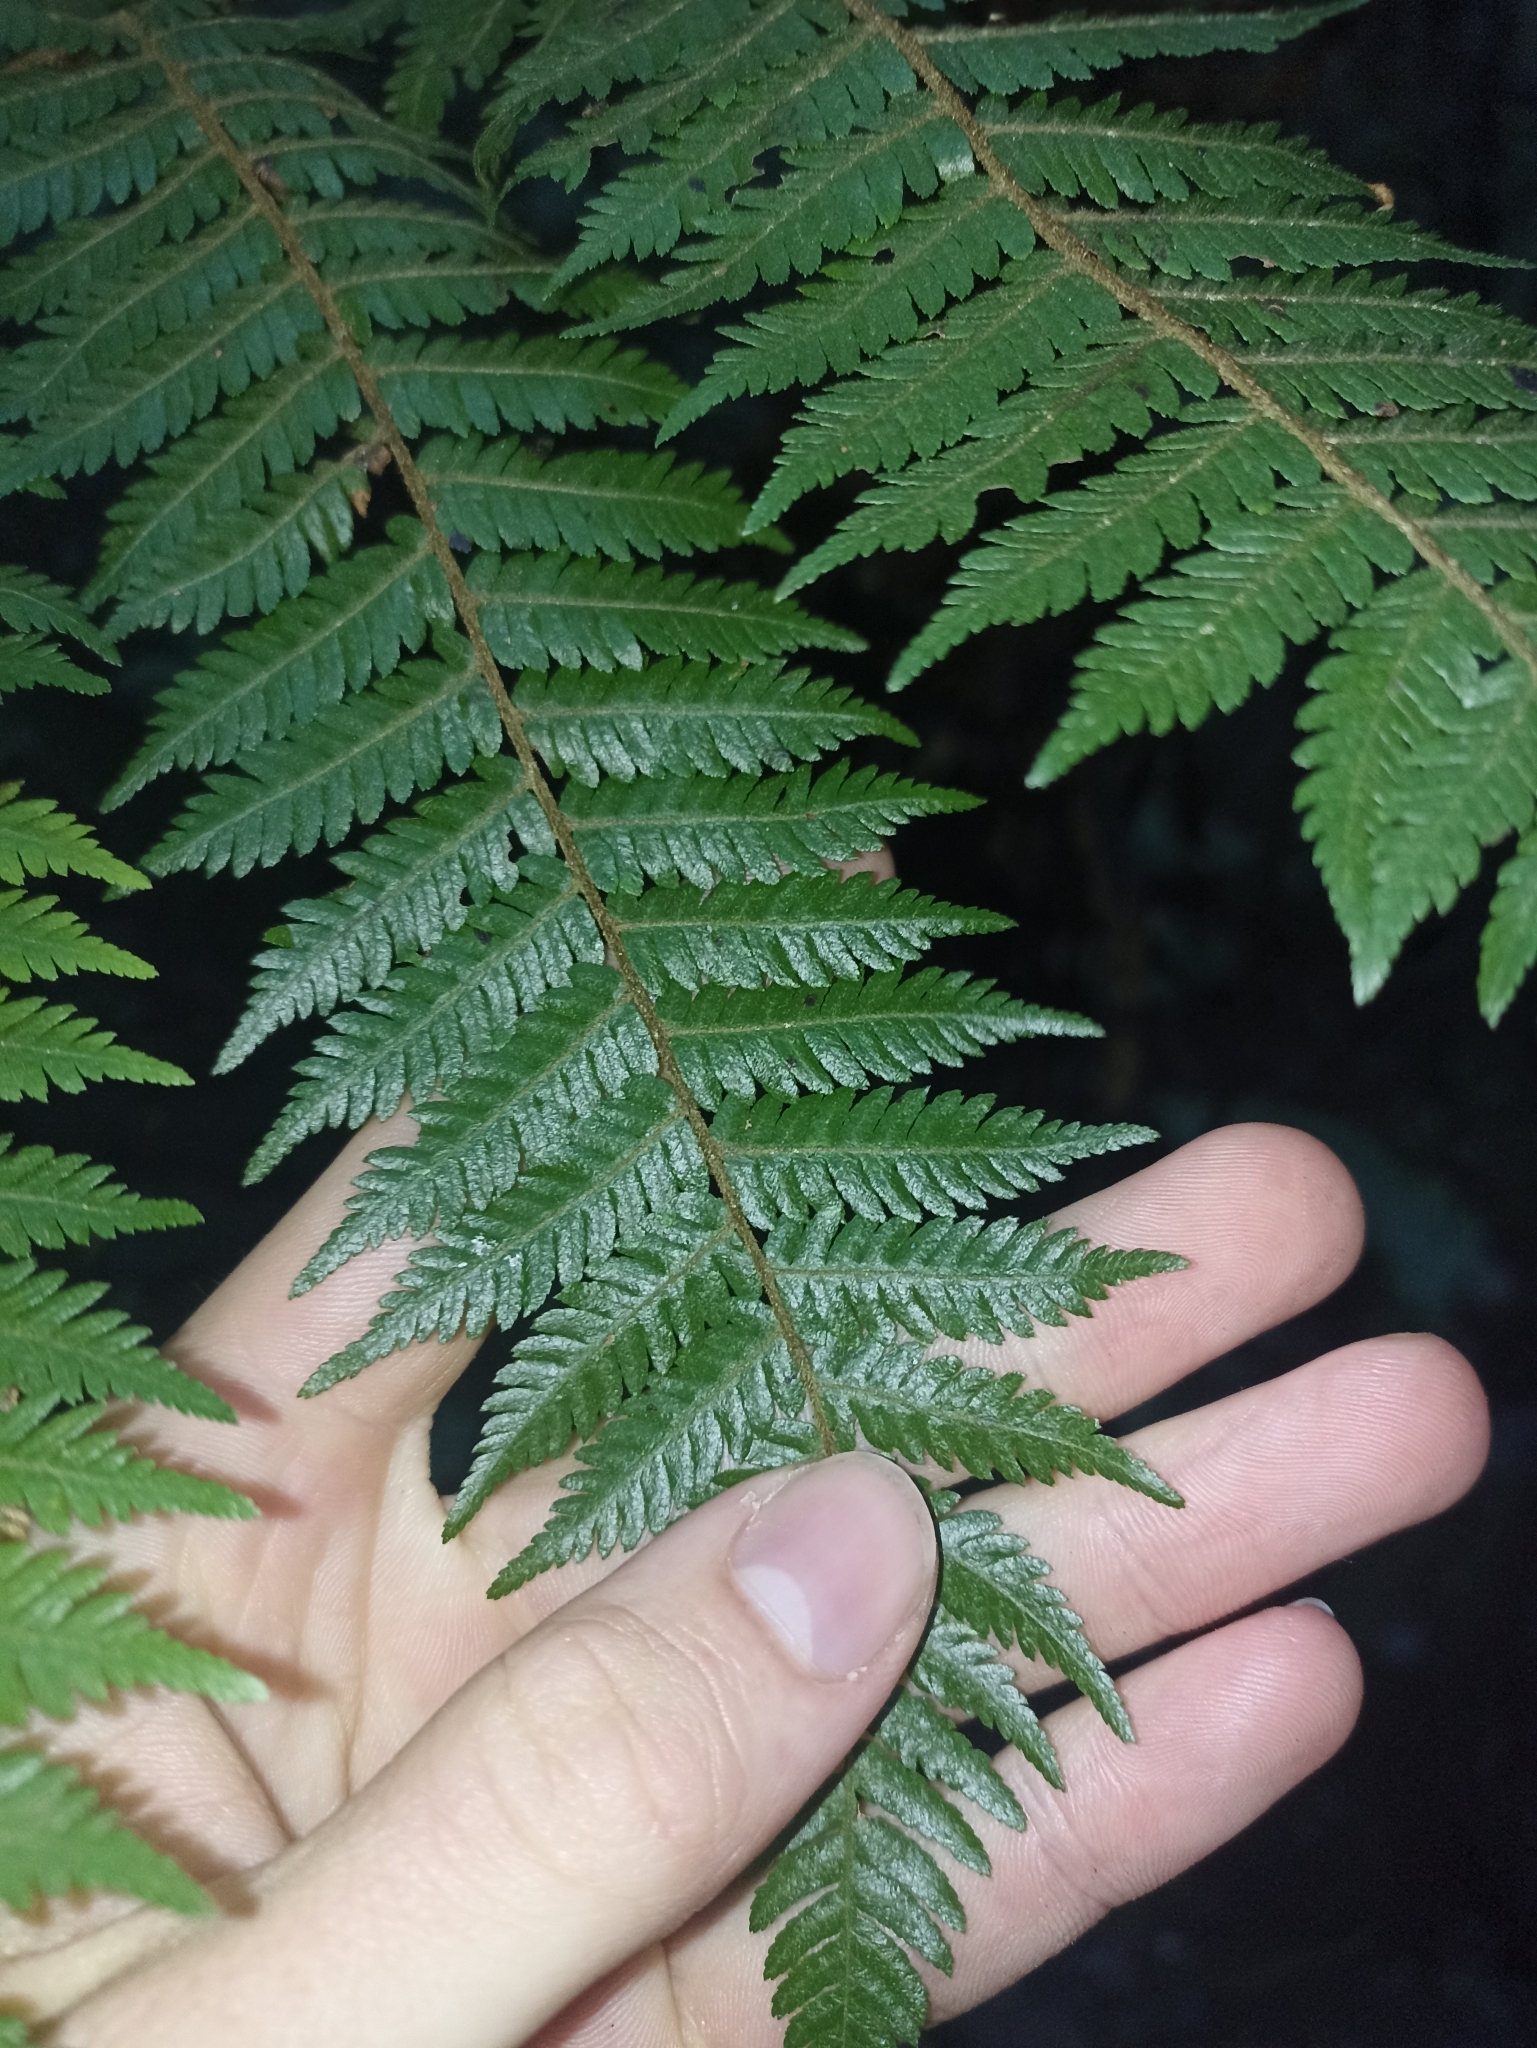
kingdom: Plantae
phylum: Tracheophyta
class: Polypodiopsida
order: Cyatheales
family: Cyatheaceae
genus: Alsophila
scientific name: Alsophila smithii
